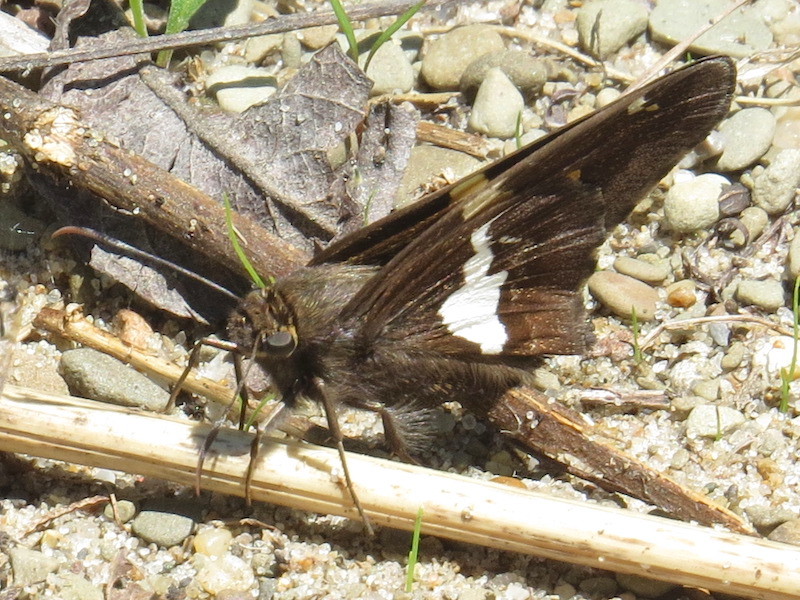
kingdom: Animalia
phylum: Arthropoda
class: Insecta
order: Lepidoptera
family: Hesperiidae
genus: Epargyreus
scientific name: Epargyreus clarus
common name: Silver-spotted skipper
